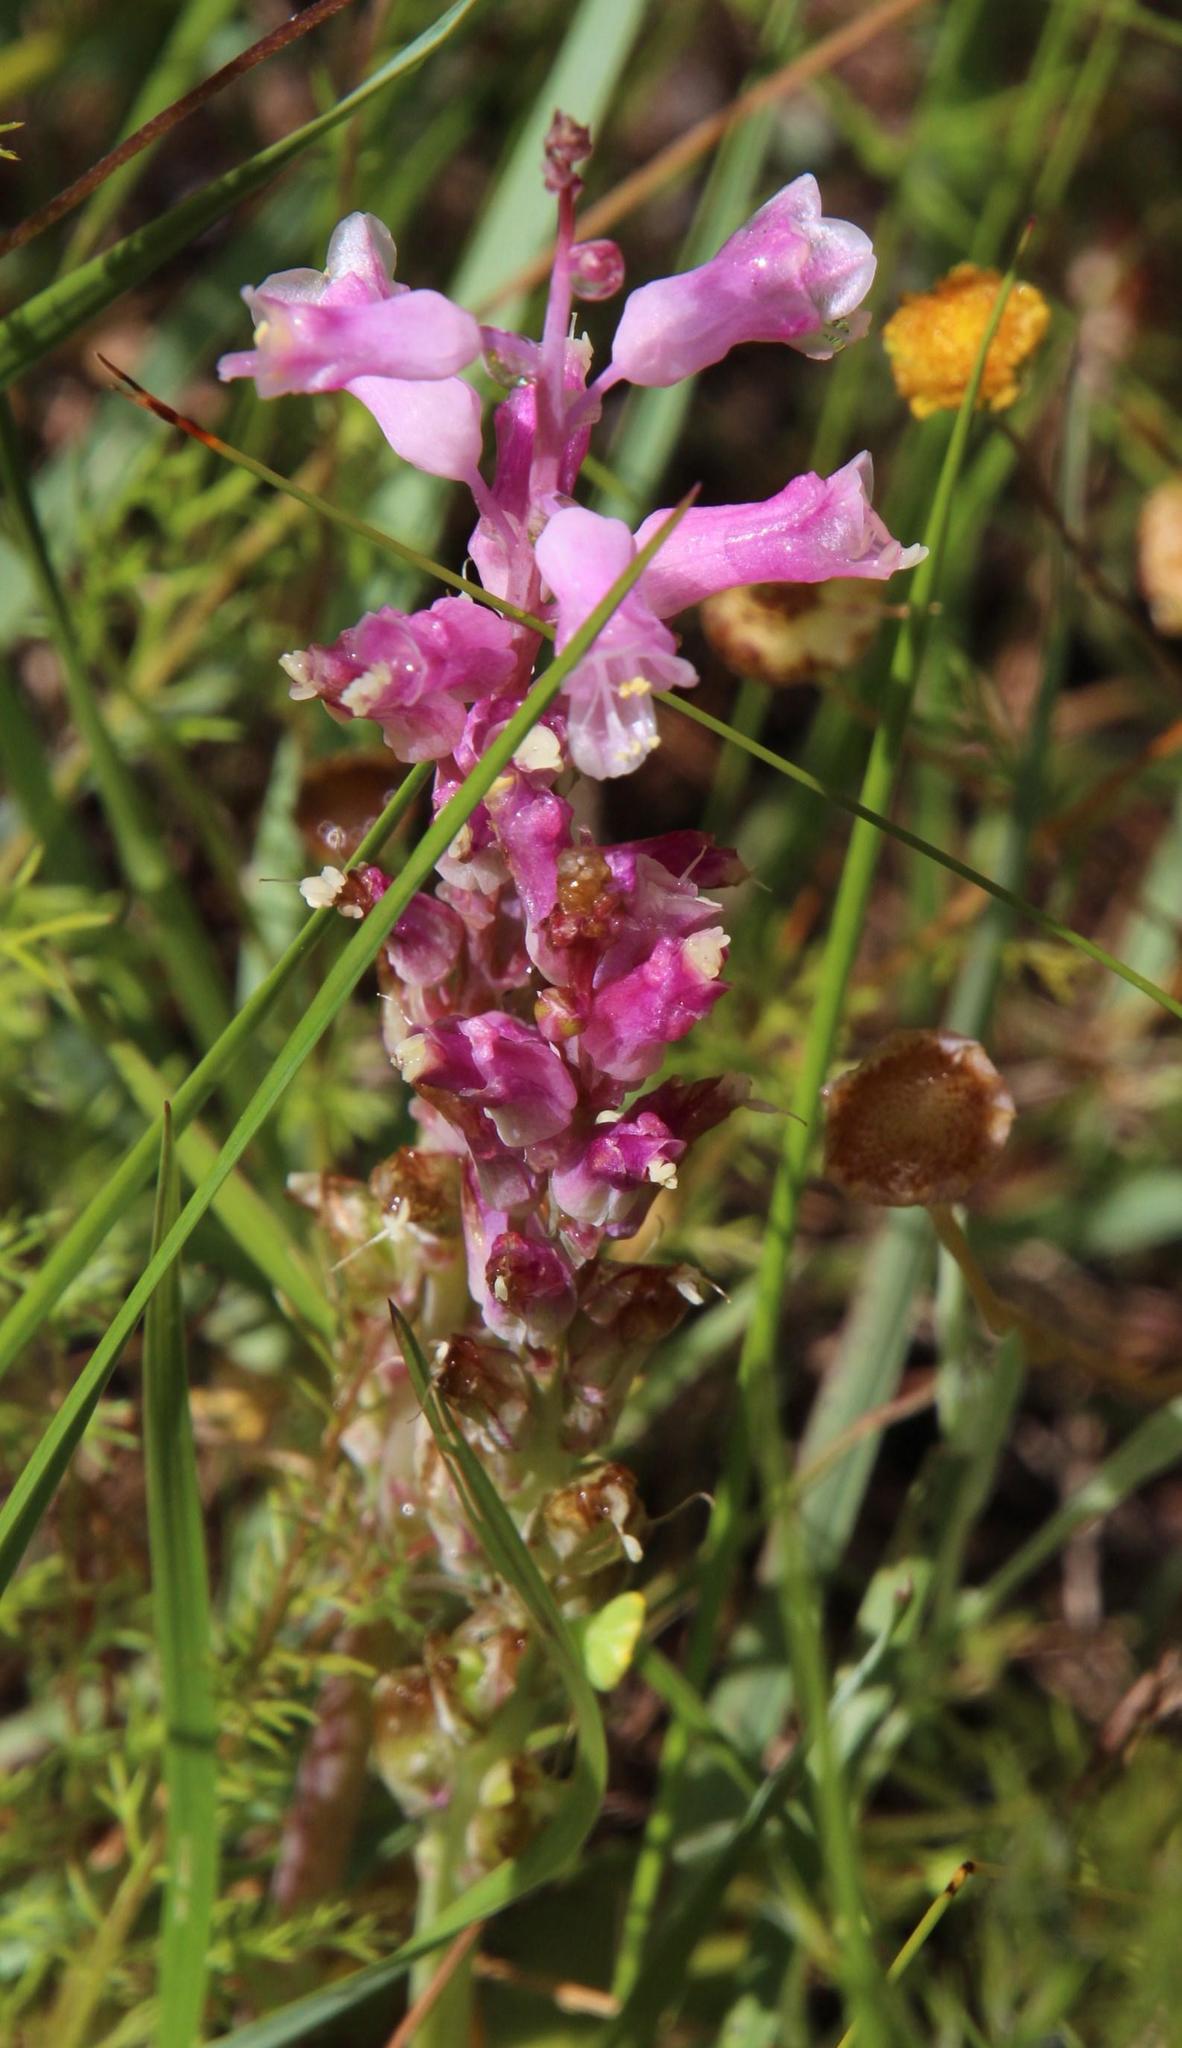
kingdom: Plantae
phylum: Tracheophyta
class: Liliopsida
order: Asparagales
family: Asparagaceae
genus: Lachenalia
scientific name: Lachenalia rosea
